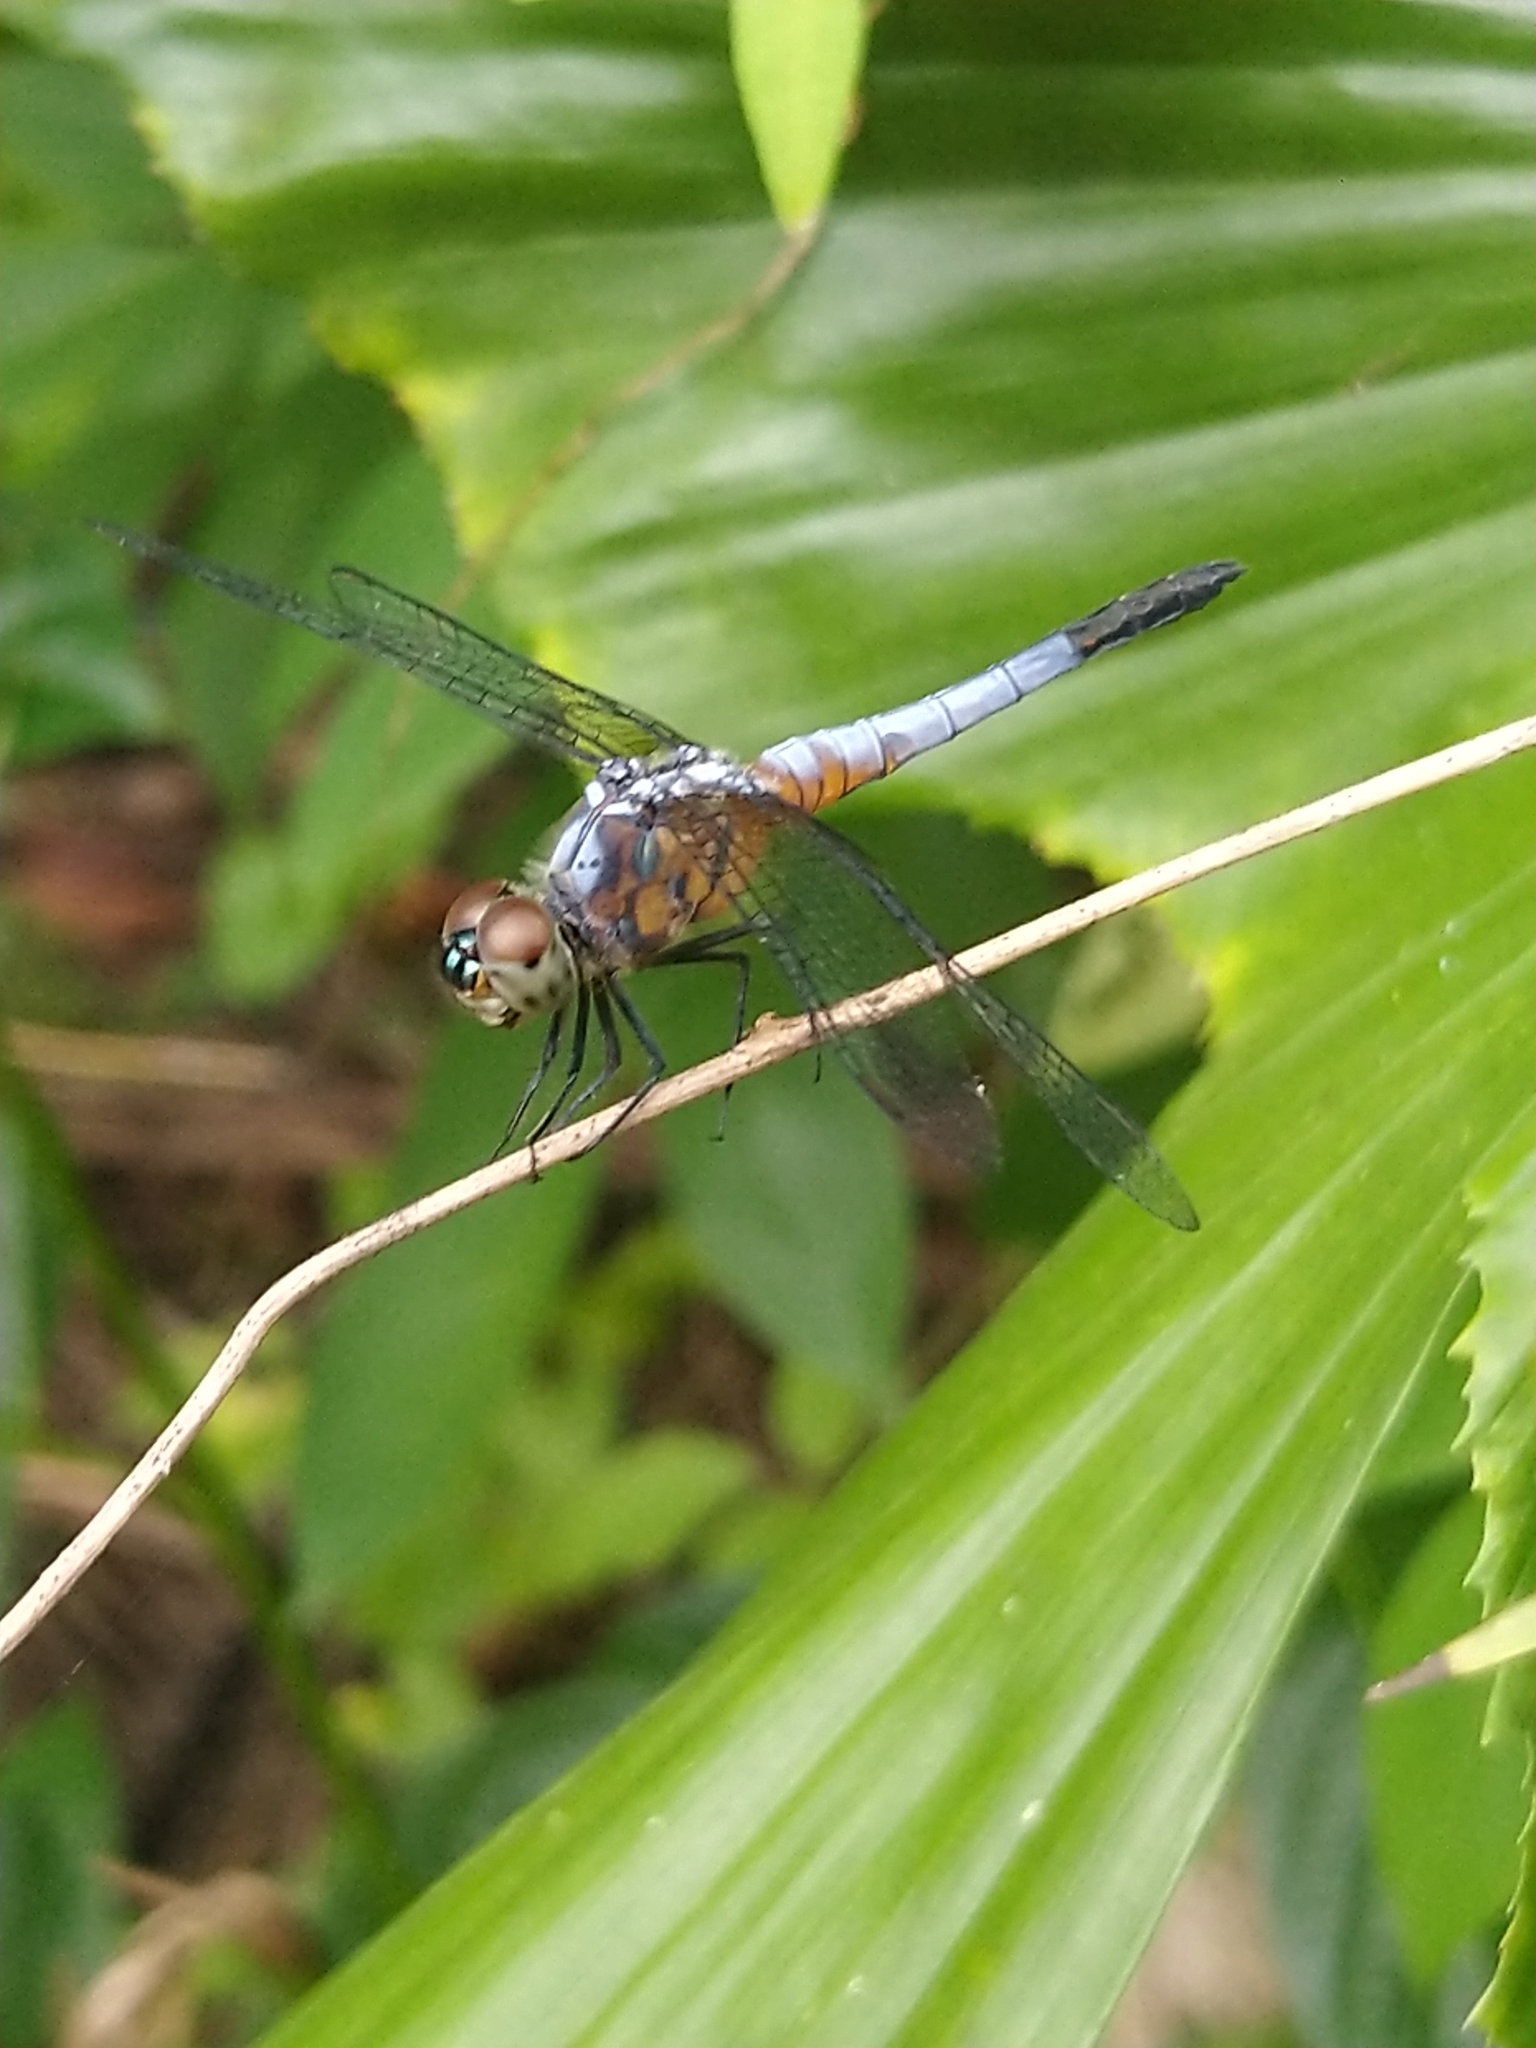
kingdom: Animalia
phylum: Arthropoda
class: Insecta
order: Odonata
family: Libellulidae
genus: Brachydiplax
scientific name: Brachydiplax chalybea
